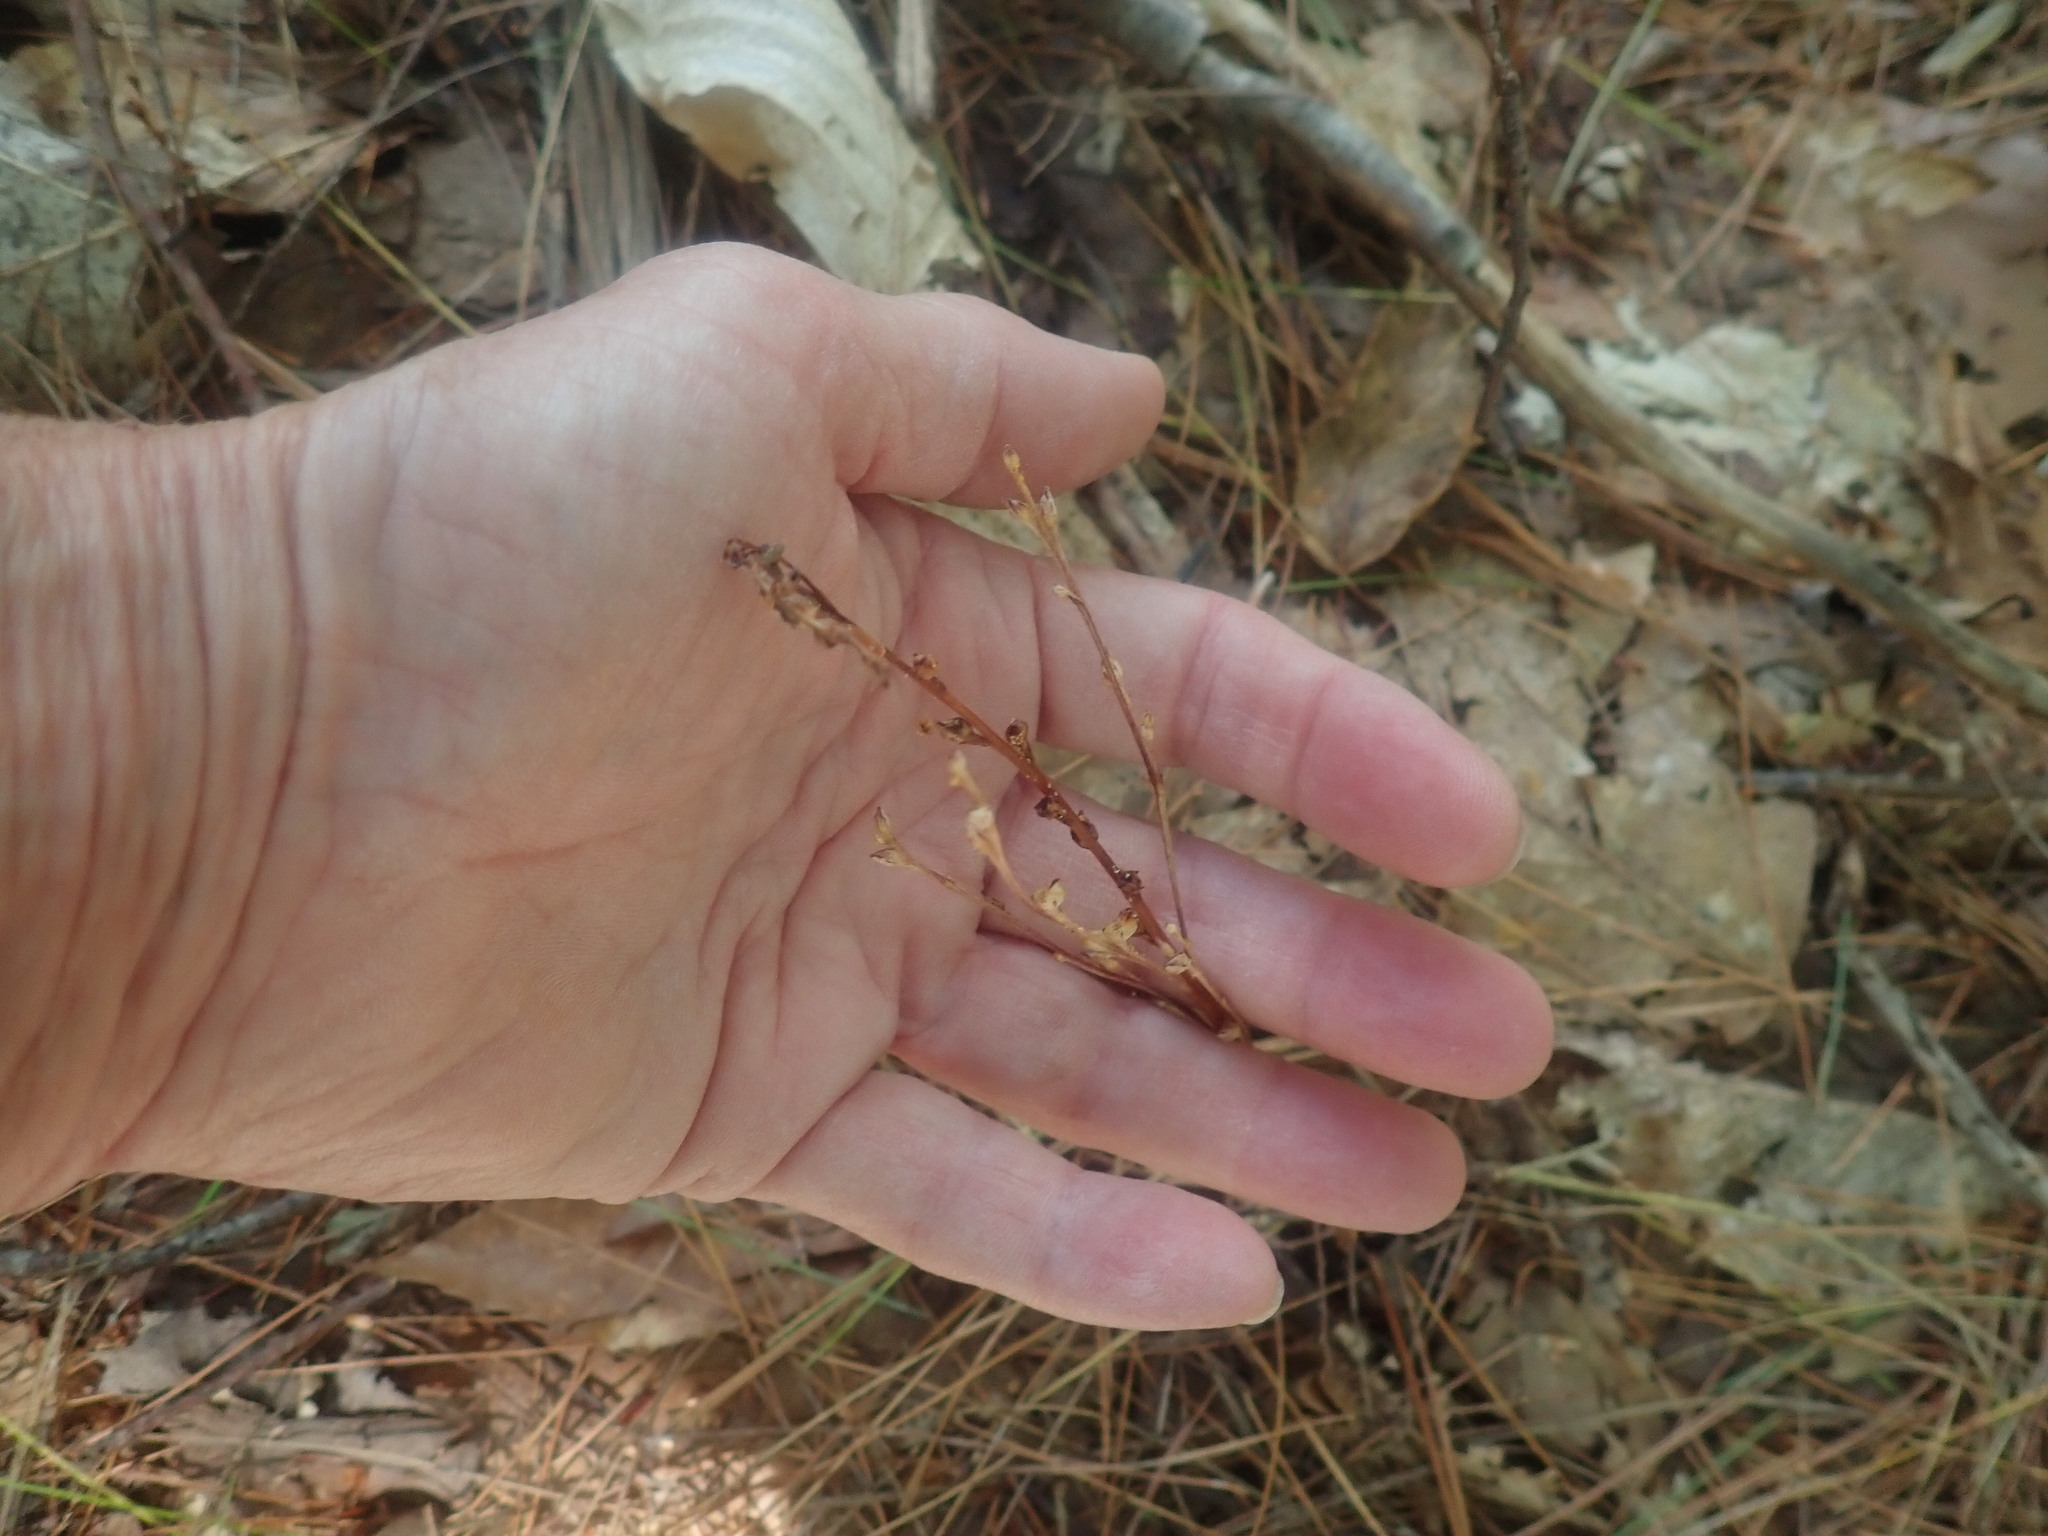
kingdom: Plantae
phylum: Tracheophyta
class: Magnoliopsida
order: Lamiales
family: Orobanchaceae
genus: Epifagus
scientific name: Epifagus virginiana
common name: Beechdrops
